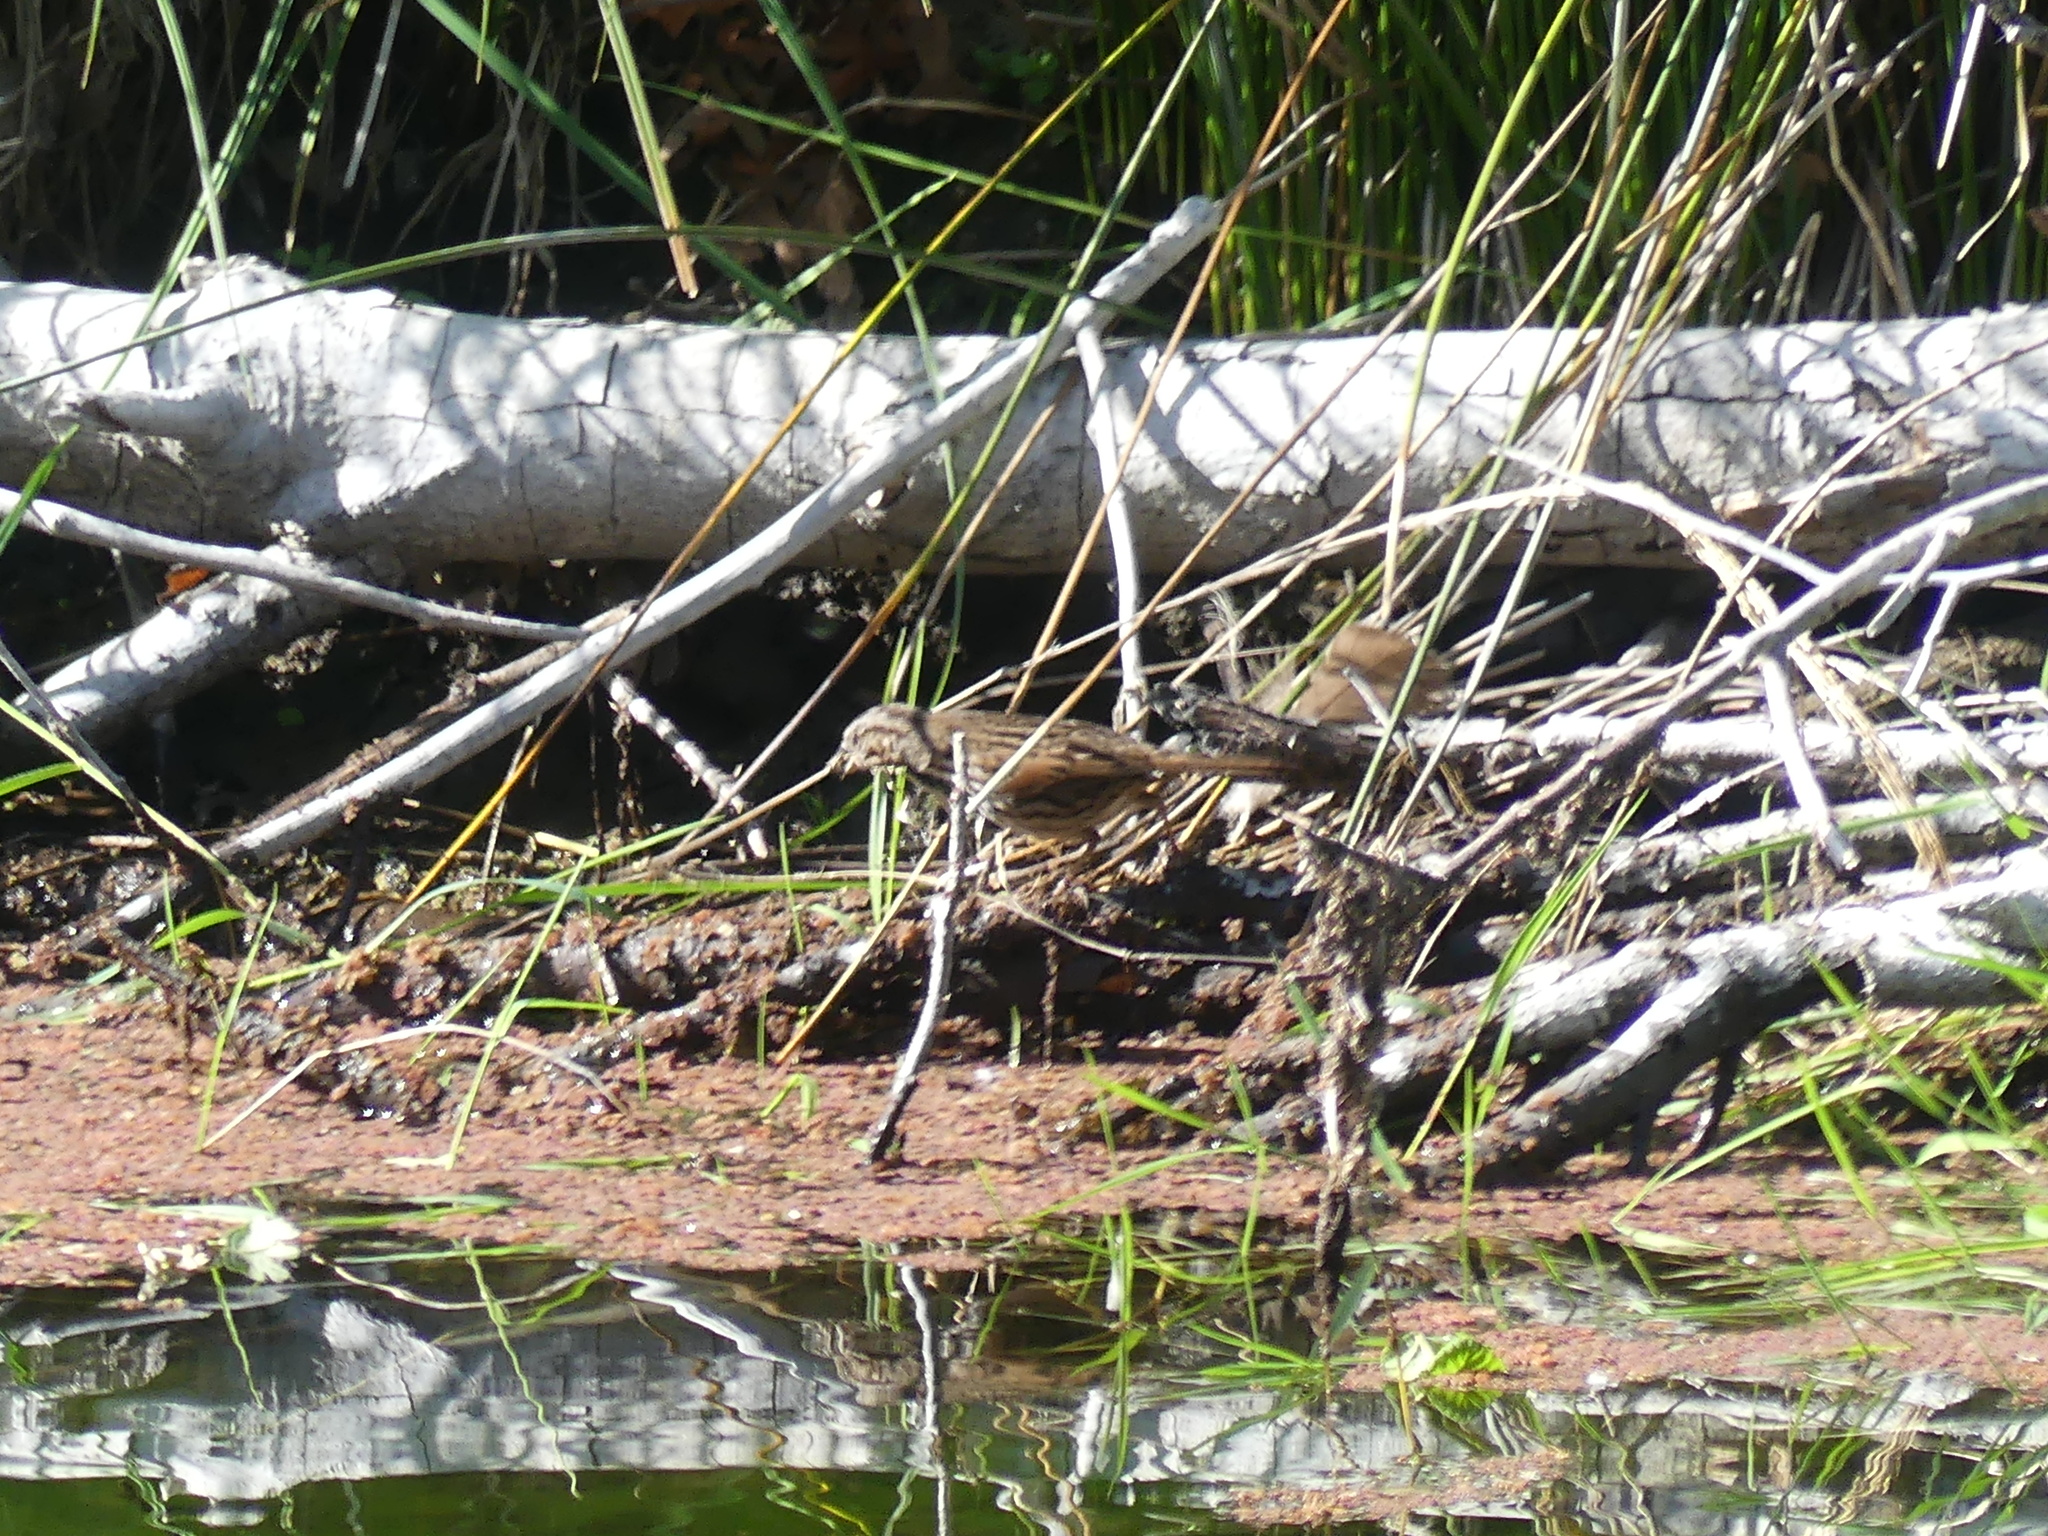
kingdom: Animalia
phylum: Chordata
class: Aves
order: Passeriformes
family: Passerellidae
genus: Melospiza
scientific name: Melospiza melodia
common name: Song sparrow
